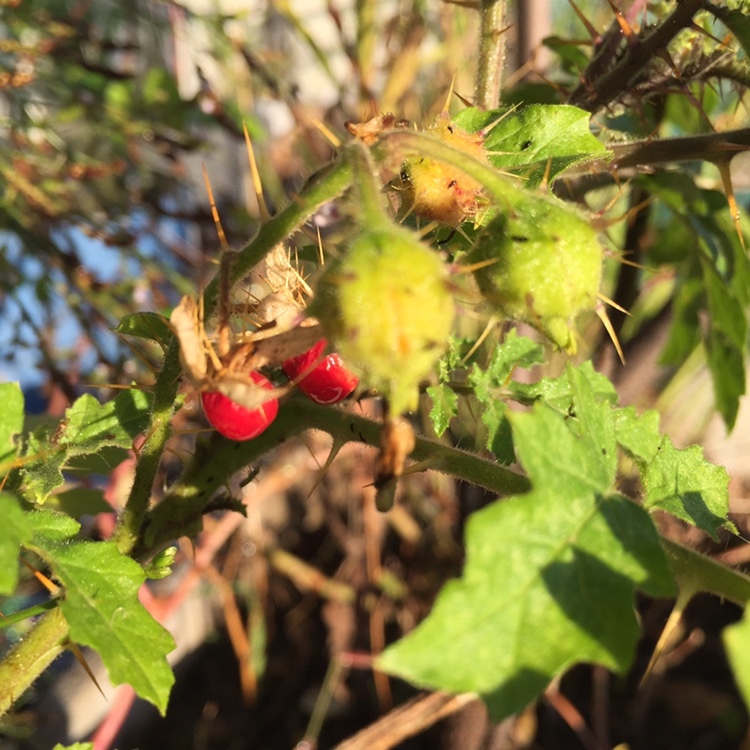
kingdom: Plantae
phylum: Tracheophyta
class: Magnoliopsida
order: Solanales
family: Solanaceae
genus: Solanum
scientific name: Solanum sisymbriifolium
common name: Red buffalo-bur
